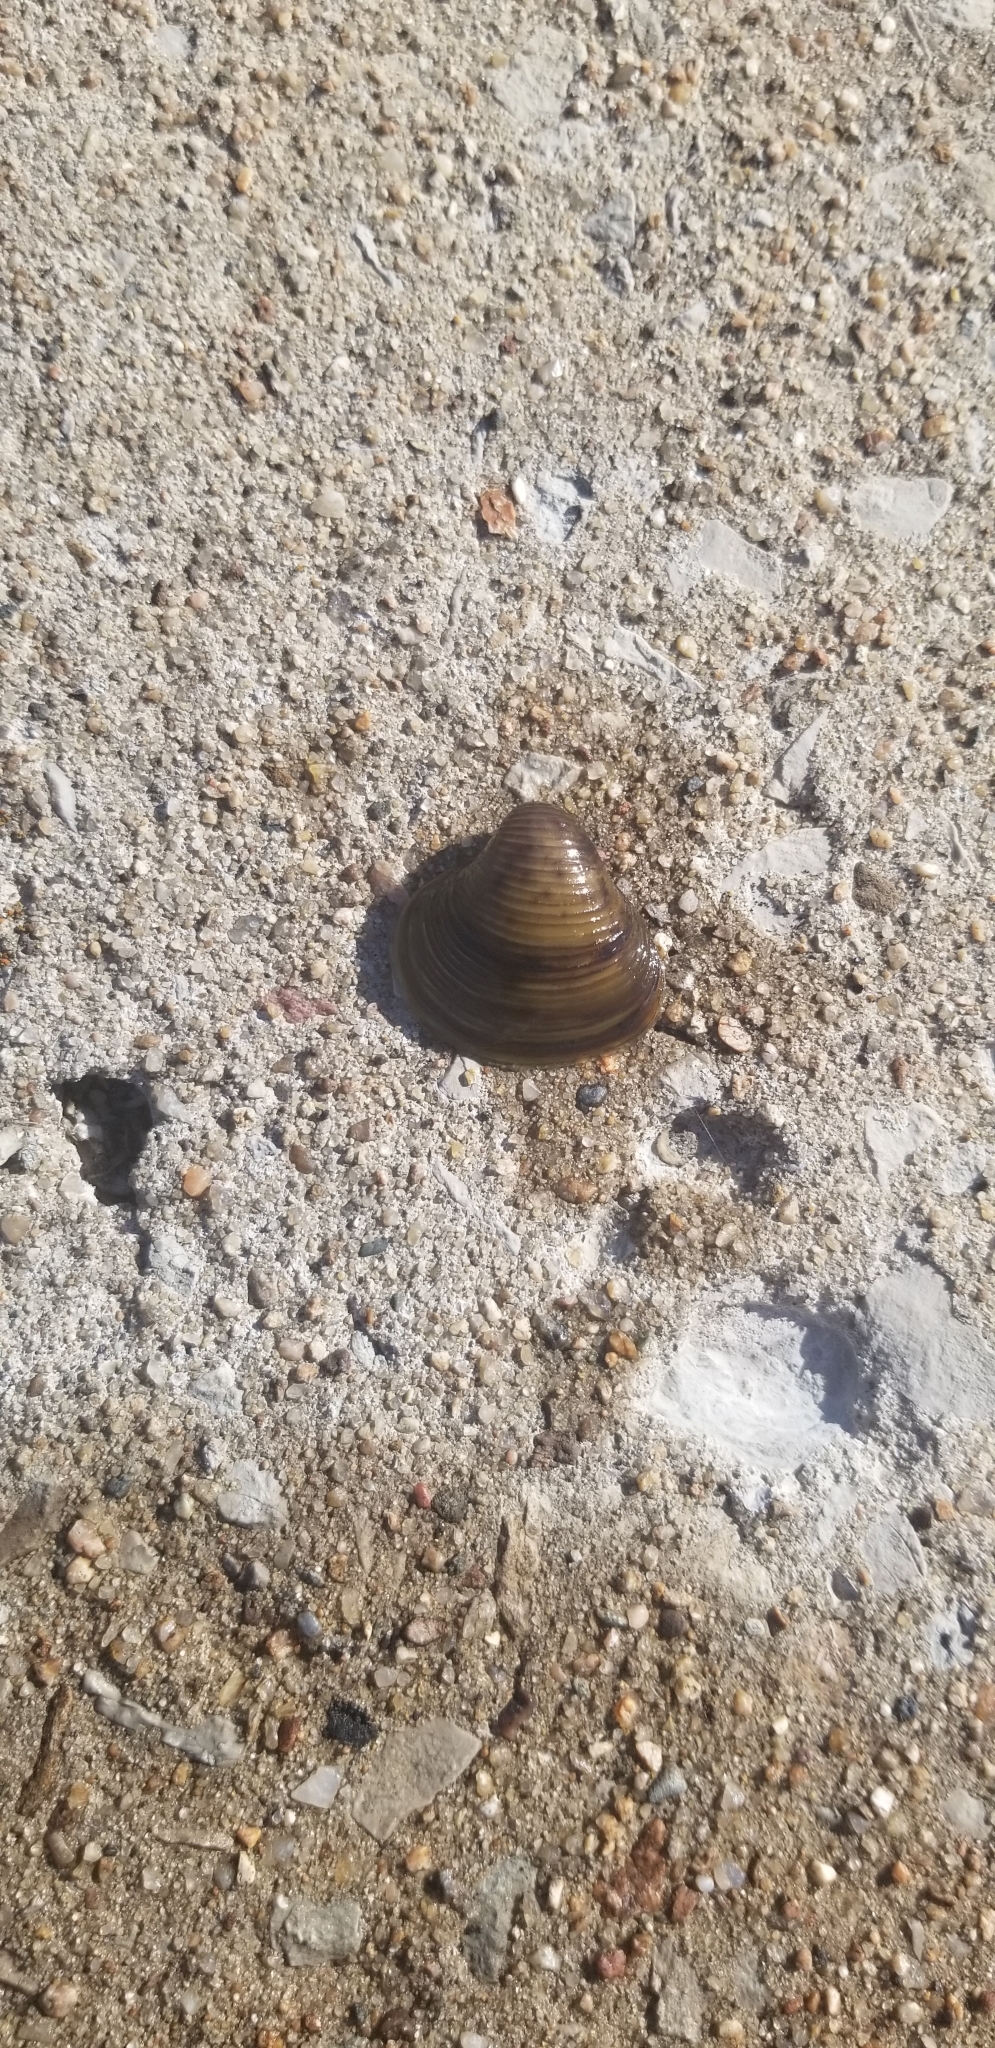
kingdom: Animalia
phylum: Mollusca
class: Bivalvia
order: Venerida
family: Cyrenidae
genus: Corbicula
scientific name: Corbicula fluminea
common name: Asian clam
